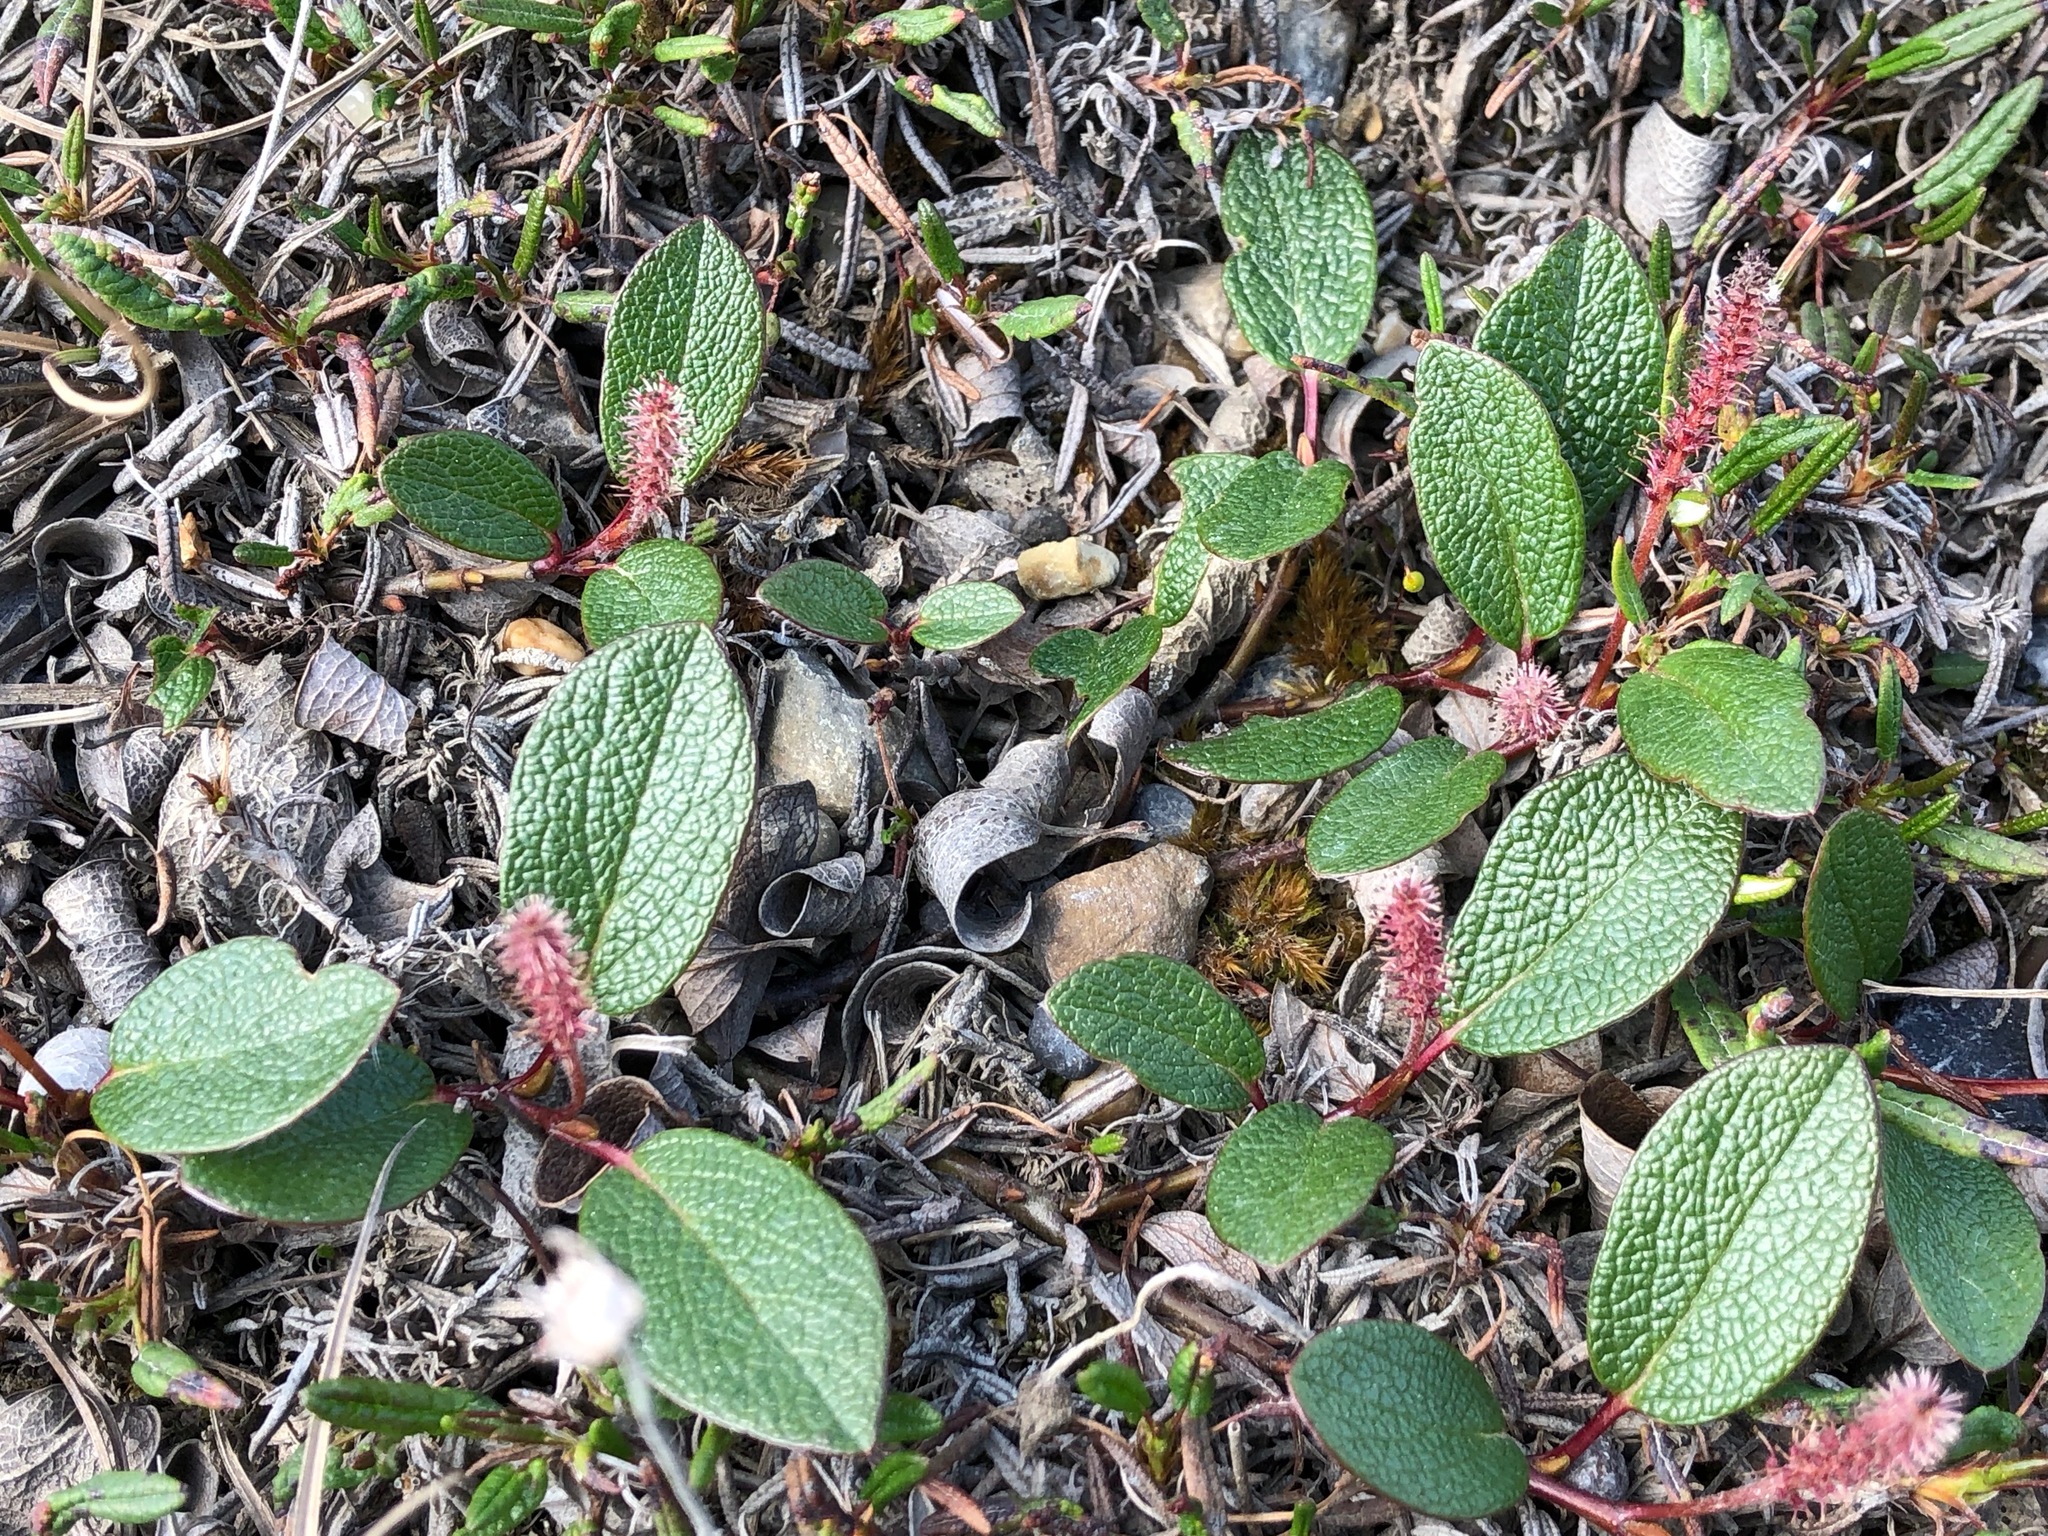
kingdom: Plantae
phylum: Tracheophyta
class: Magnoliopsida
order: Malpighiales
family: Salicaceae
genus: Salix
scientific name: Salix reticulata
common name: Net-leaved willow
